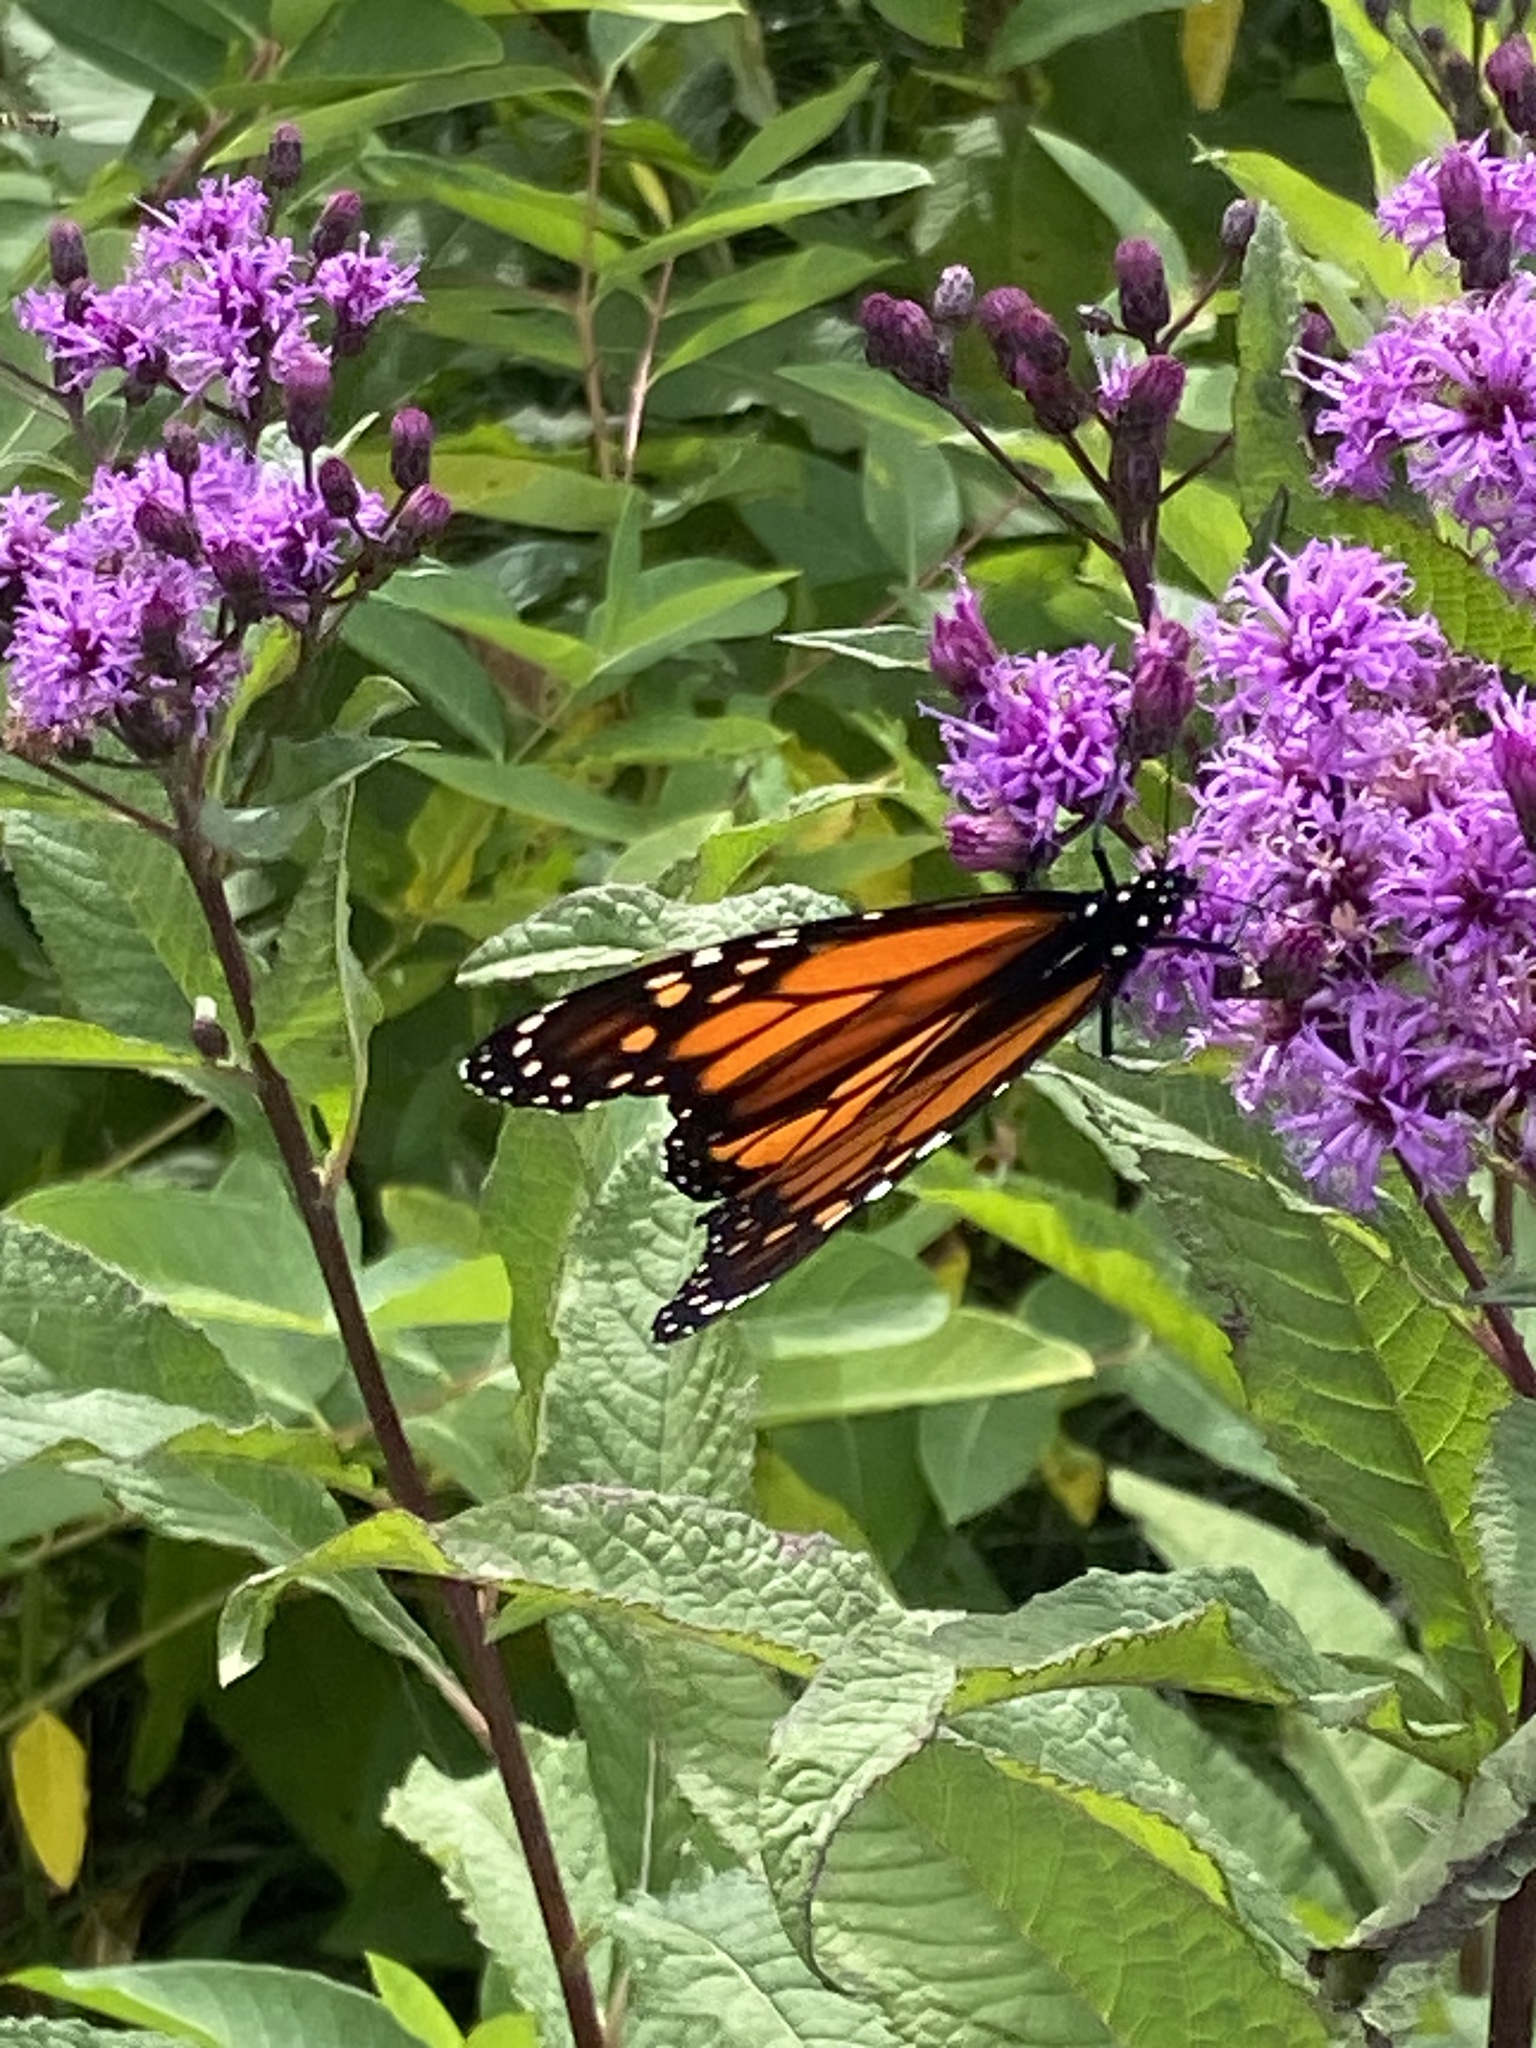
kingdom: Animalia
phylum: Arthropoda
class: Insecta
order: Lepidoptera
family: Nymphalidae
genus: Danaus
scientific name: Danaus plexippus
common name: Monarch
